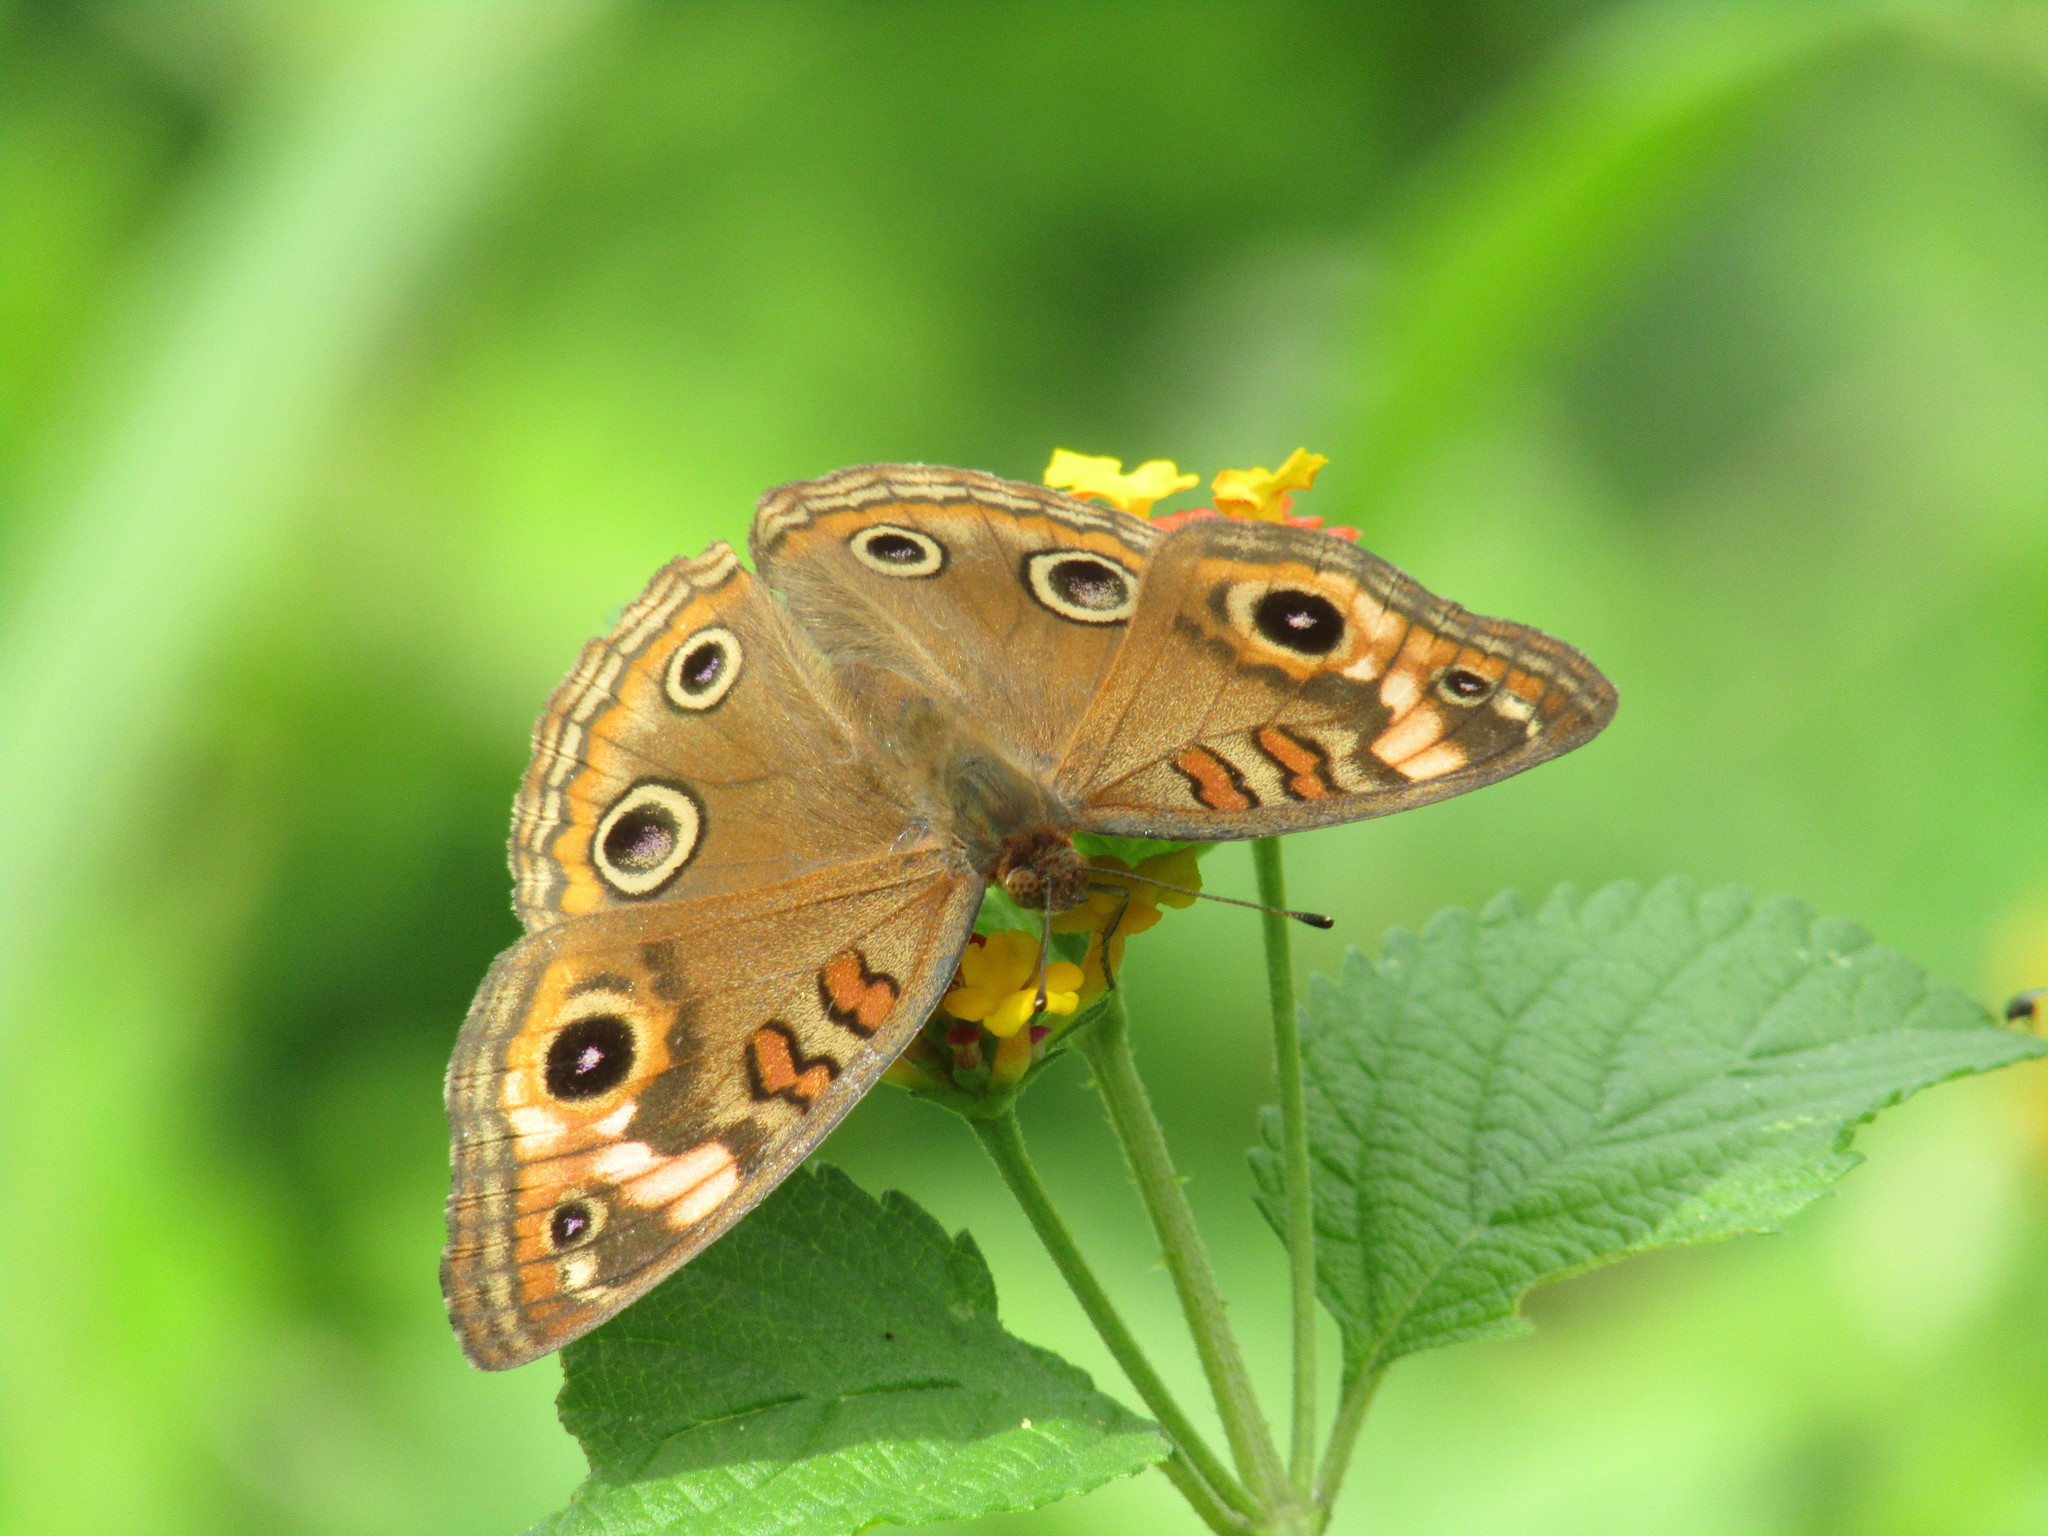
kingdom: Animalia
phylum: Arthropoda
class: Insecta
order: Lepidoptera
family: Nymphalidae
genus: Junonia
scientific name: Junonia neildi
